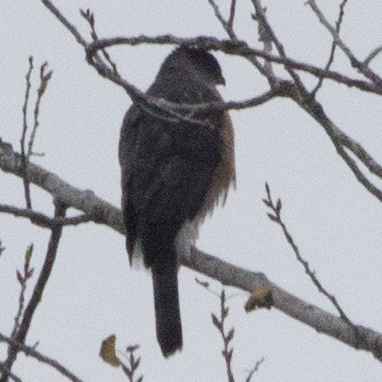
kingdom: Animalia
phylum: Chordata
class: Aves
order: Accipitriformes
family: Accipitridae
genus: Accipiter
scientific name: Accipiter cooperii
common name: Cooper's hawk
